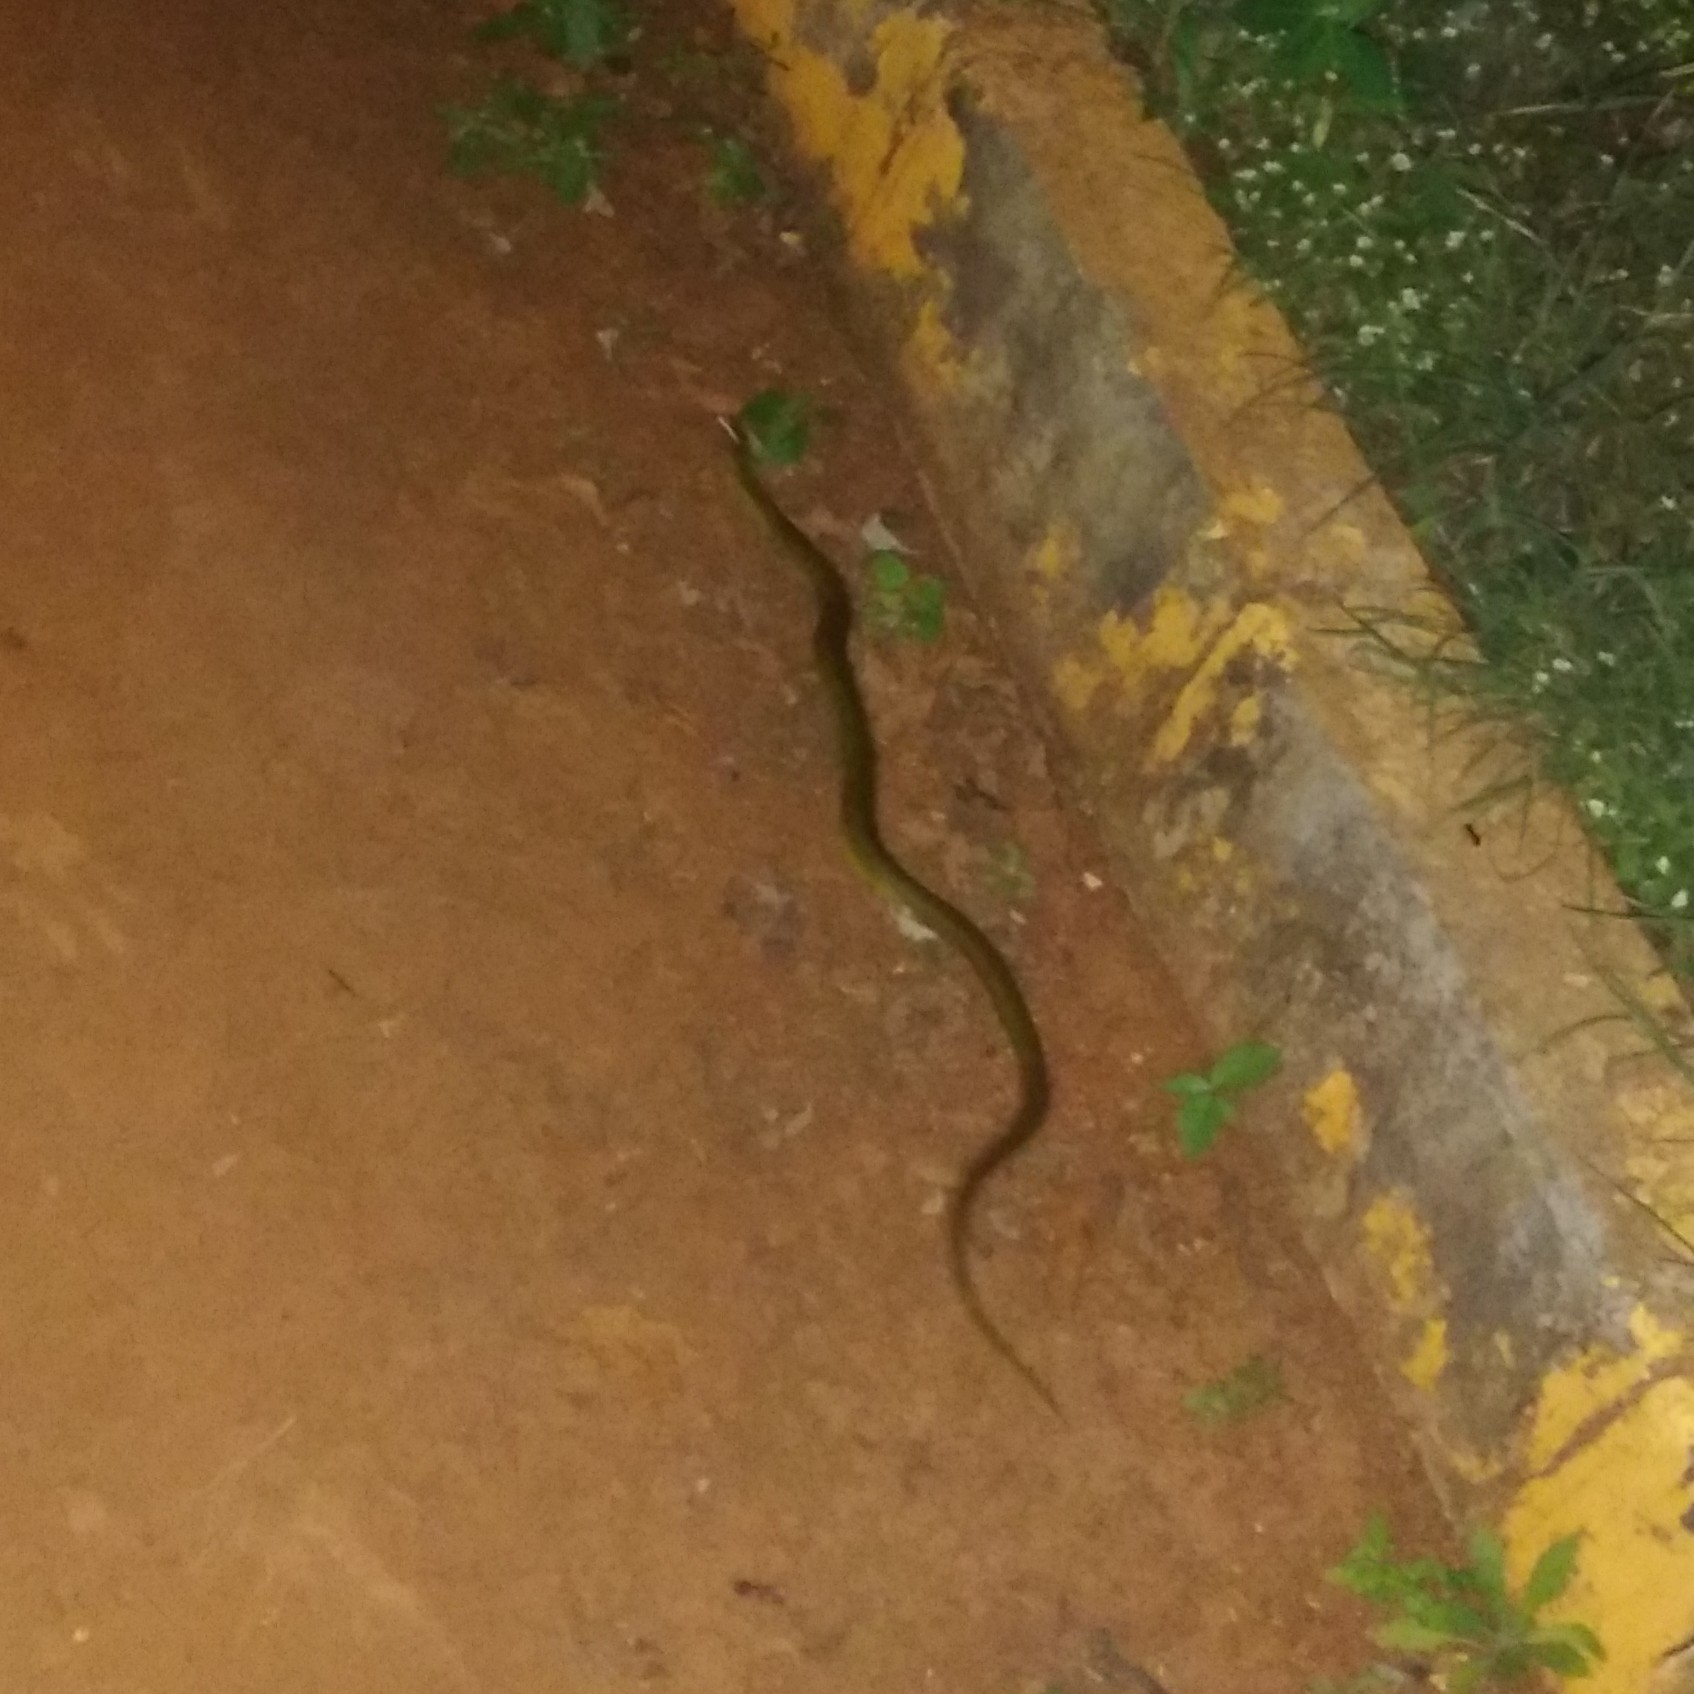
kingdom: Animalia
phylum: Chordata
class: Squamata
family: Colubridae
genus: Fowlea
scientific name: Fowlea piscator
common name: Asiatic water snake
